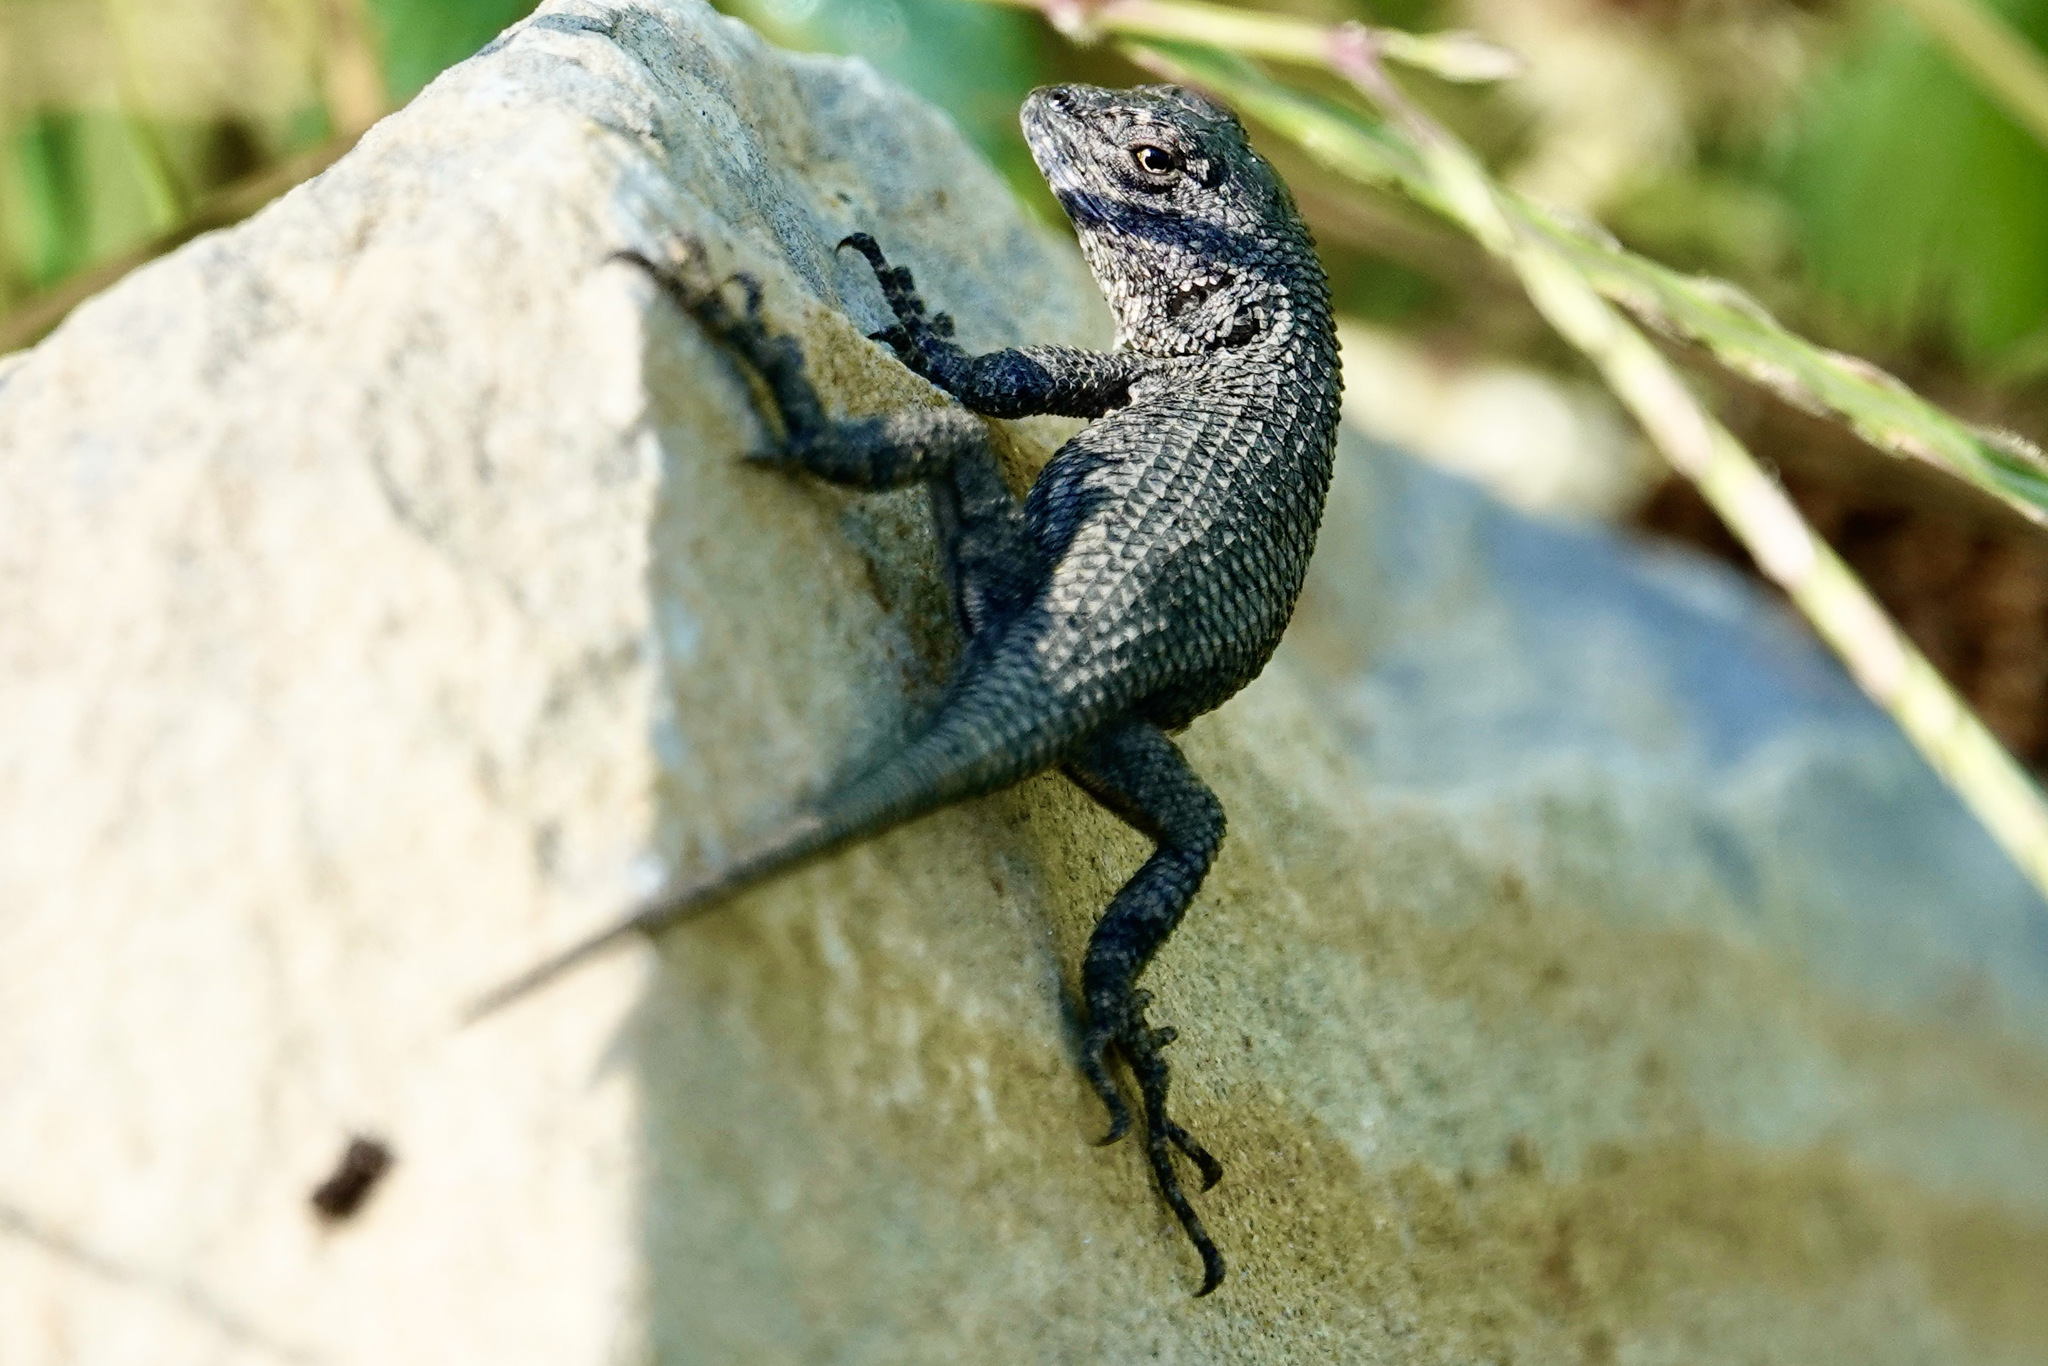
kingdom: Animalia
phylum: Chordata
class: Squamata
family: Phrynosomatidae
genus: Sceloporus
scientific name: Sceloporus undulatus
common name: Eastern fence lizard
